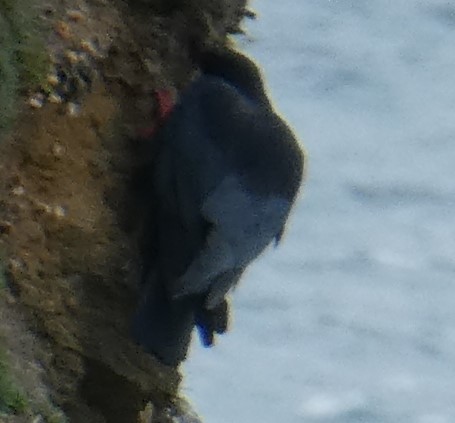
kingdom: Animalia
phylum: Chordata
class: Aves
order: Passeriformes
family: Corvidae
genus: Pyrrhocorax
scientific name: Pyrrhocorax pyrrhocorax
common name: Red-billed chough
